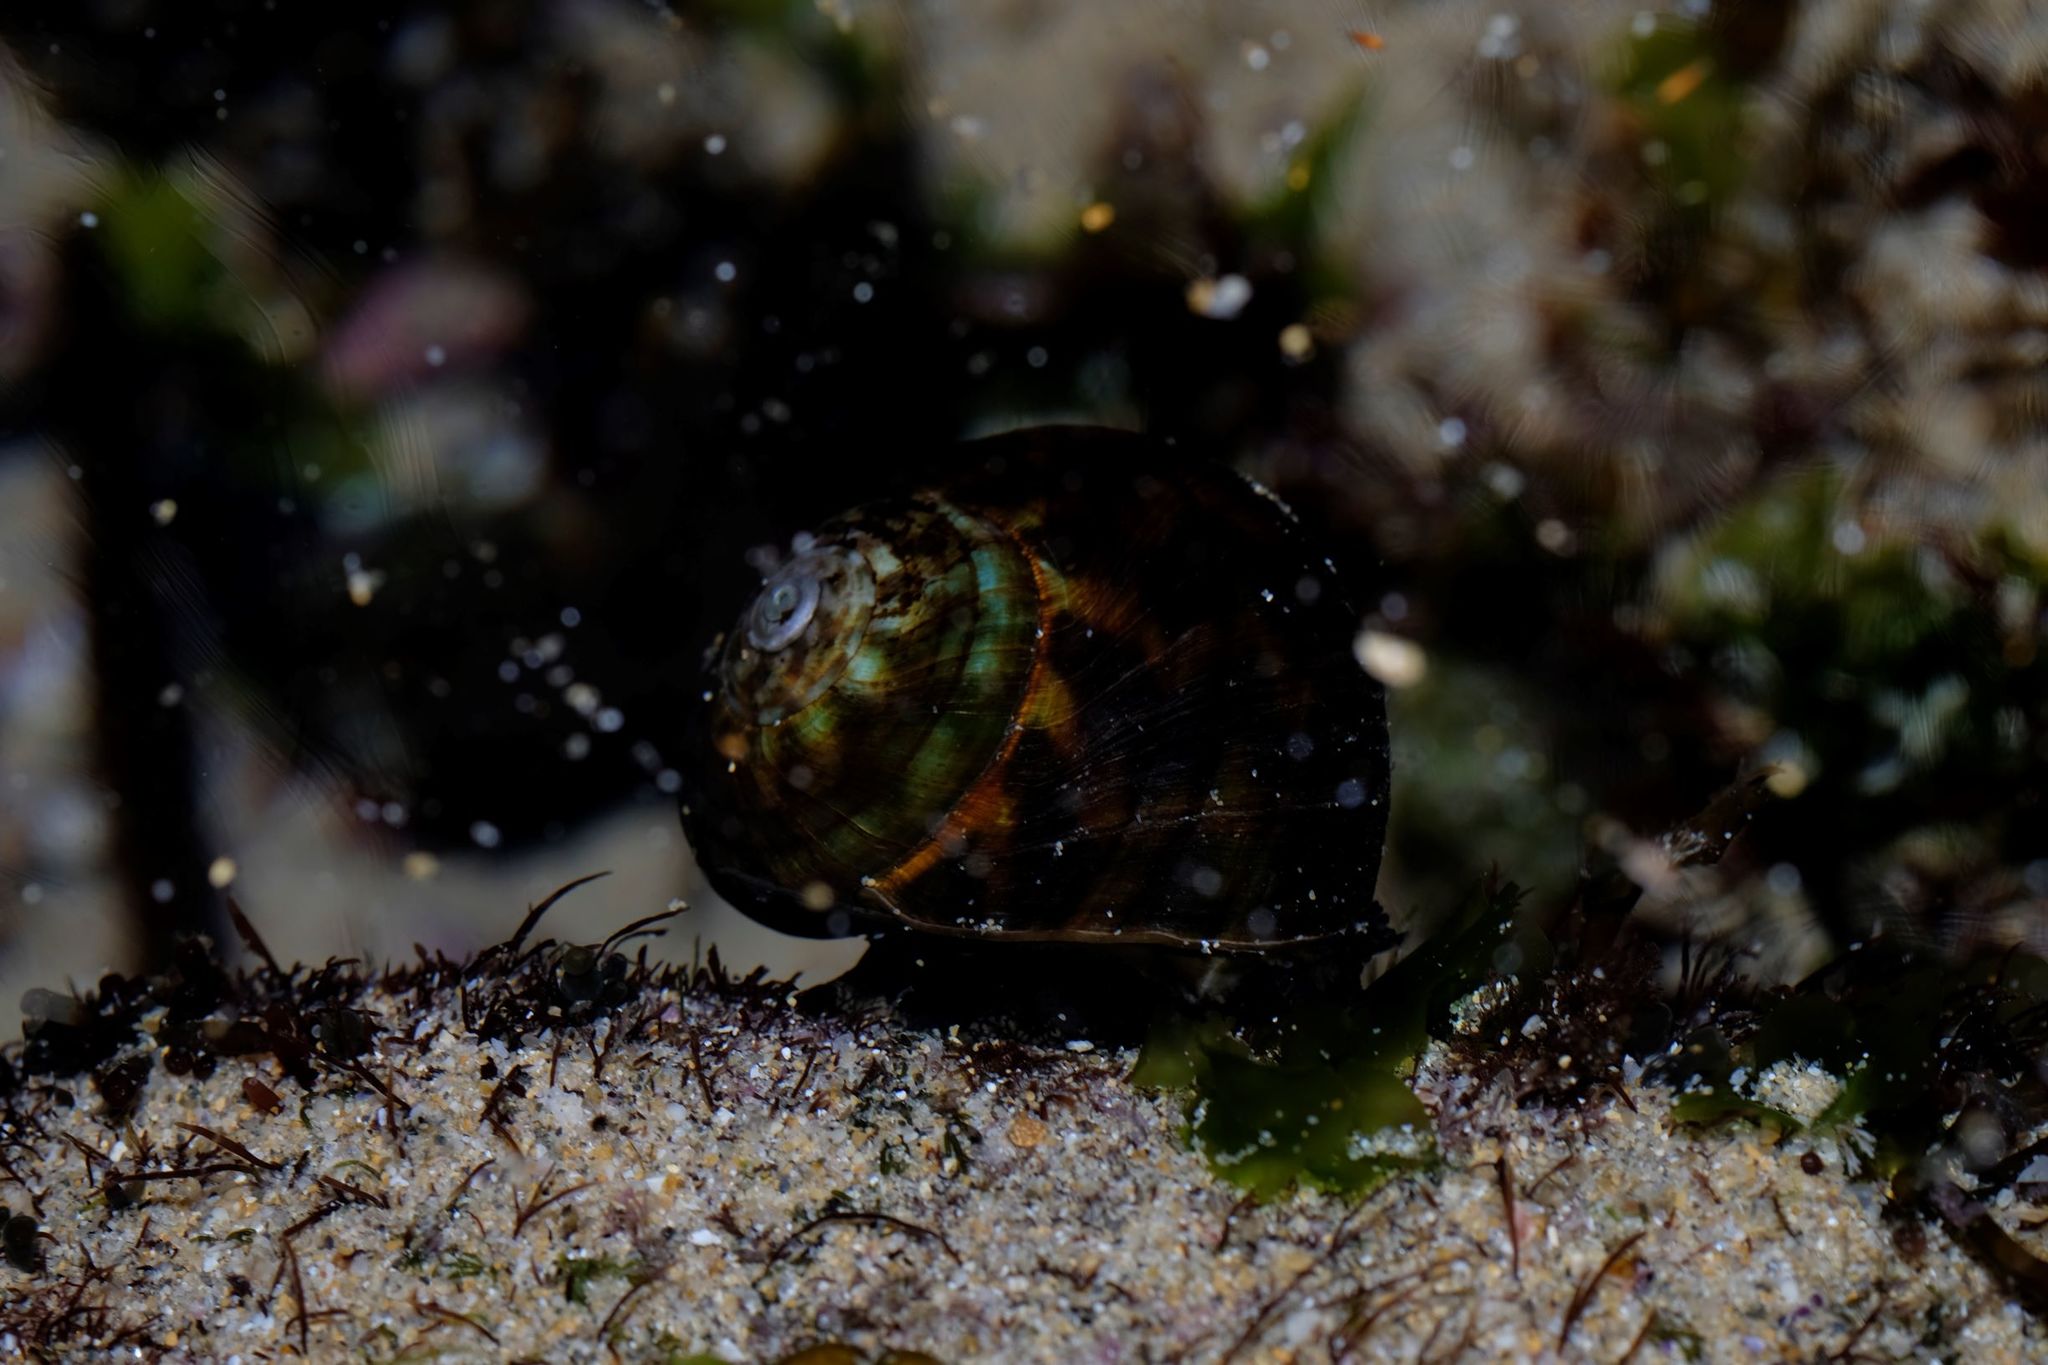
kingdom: Animalia
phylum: Mollusca
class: Gastropoda
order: Trochida
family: Turbinidae
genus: Lunella
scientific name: Lunella undulata
